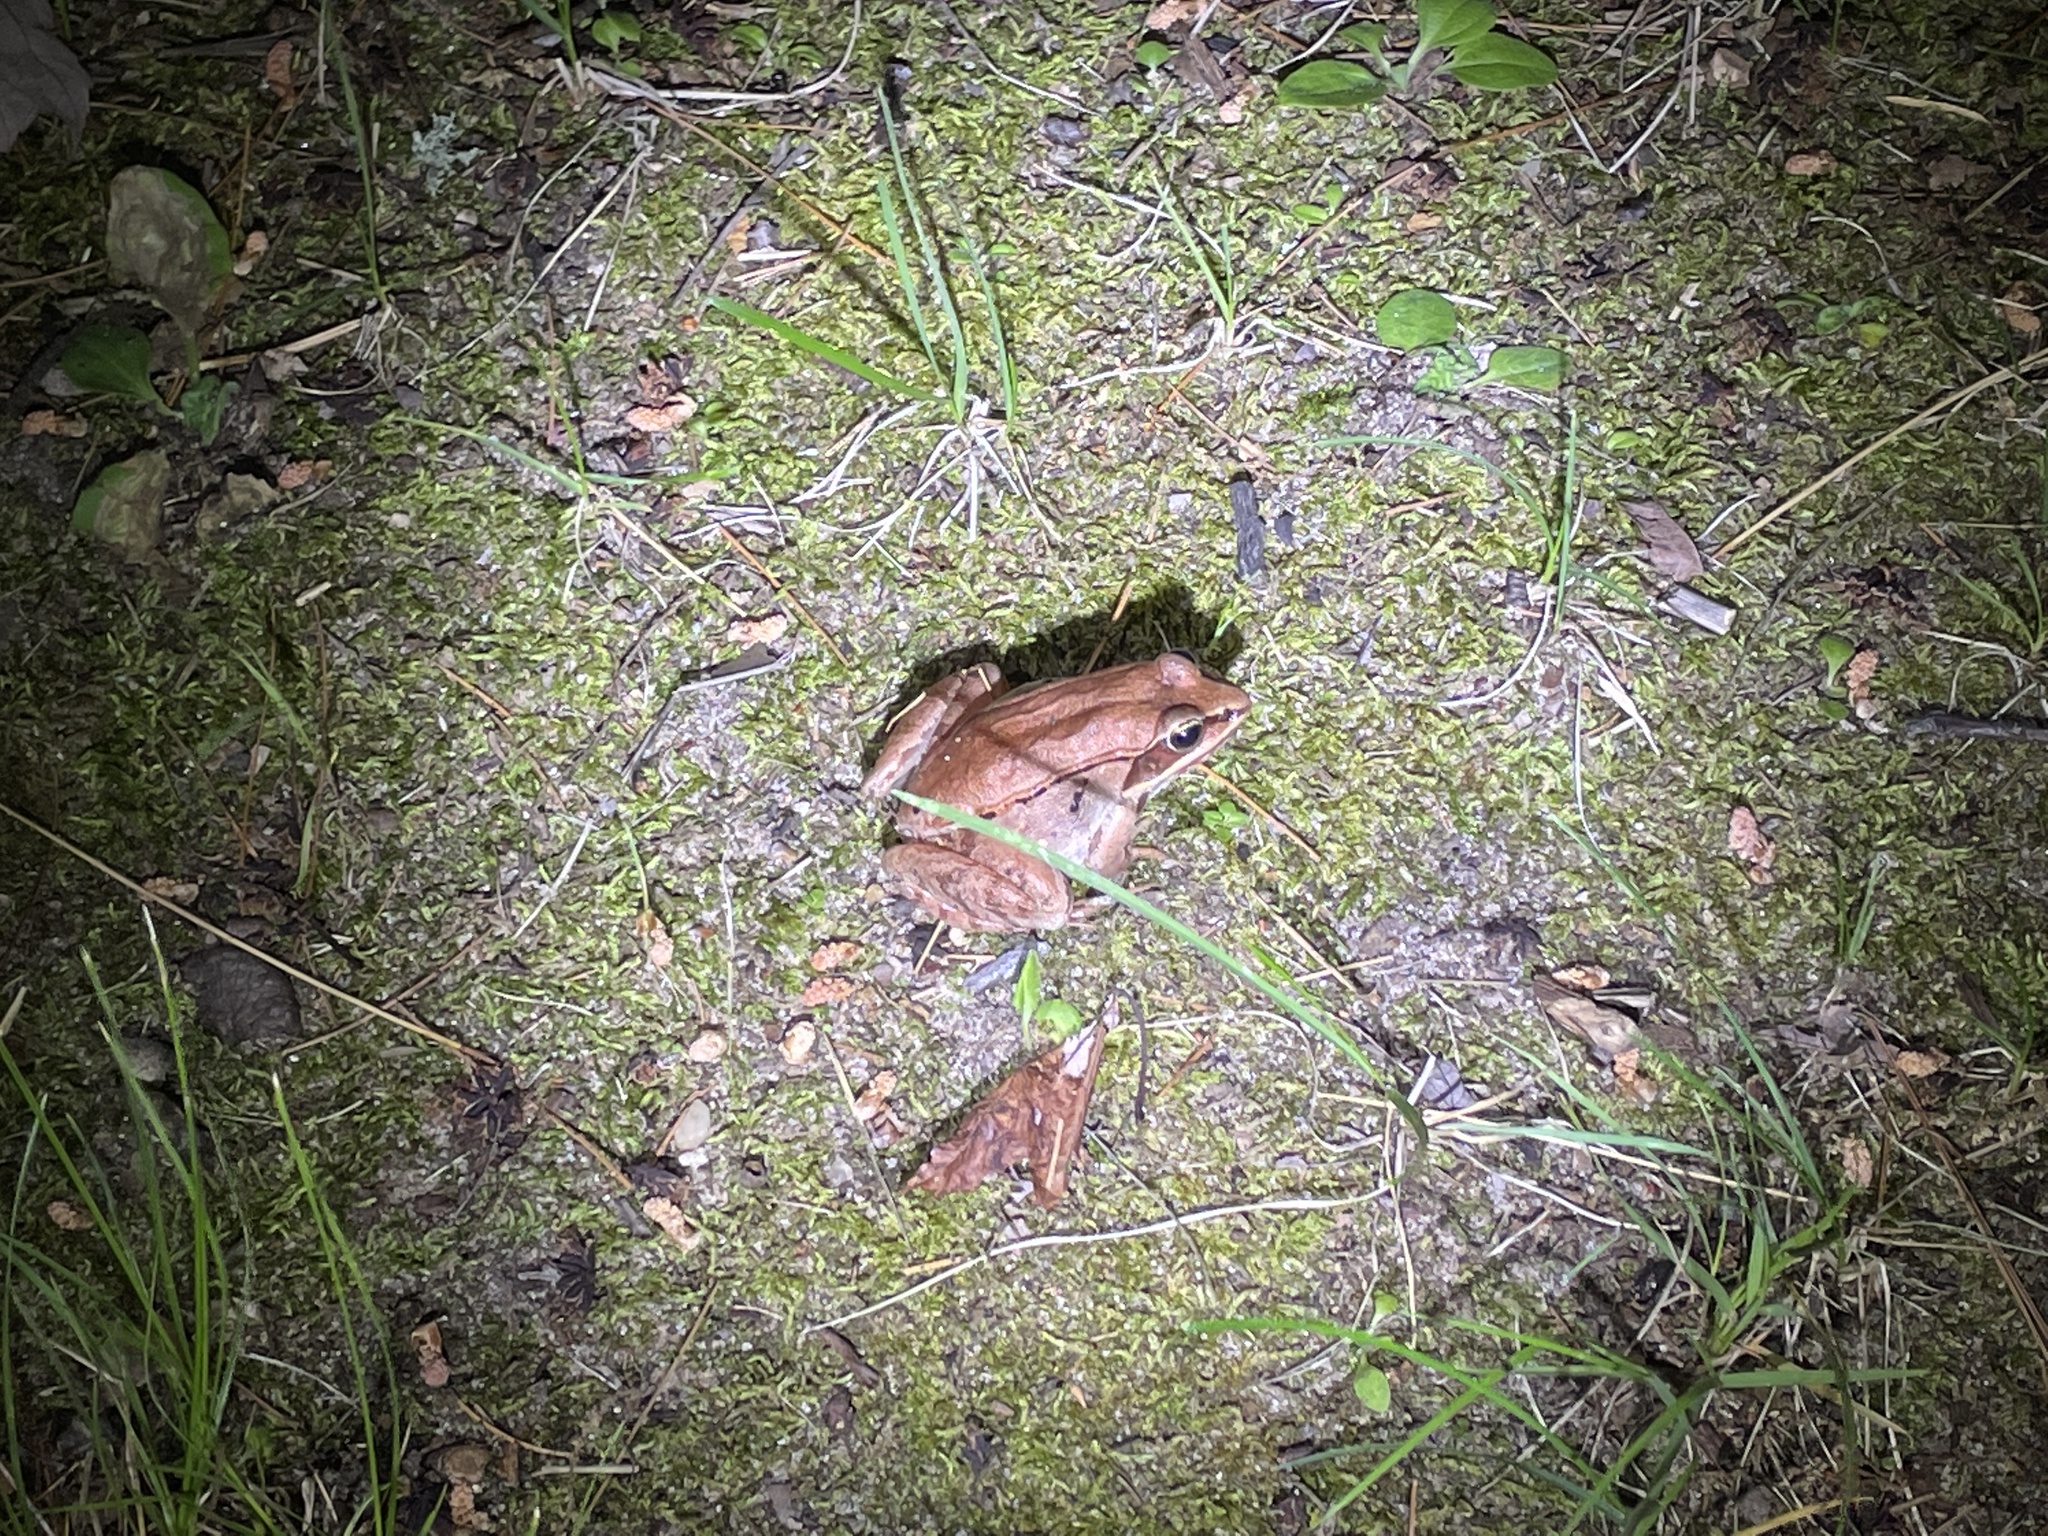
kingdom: Animalia
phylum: Chordata
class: Amphibia
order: Anura
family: Ranidae
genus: Lithobates
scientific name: Lithobates sylvaticus
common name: Wood frog
